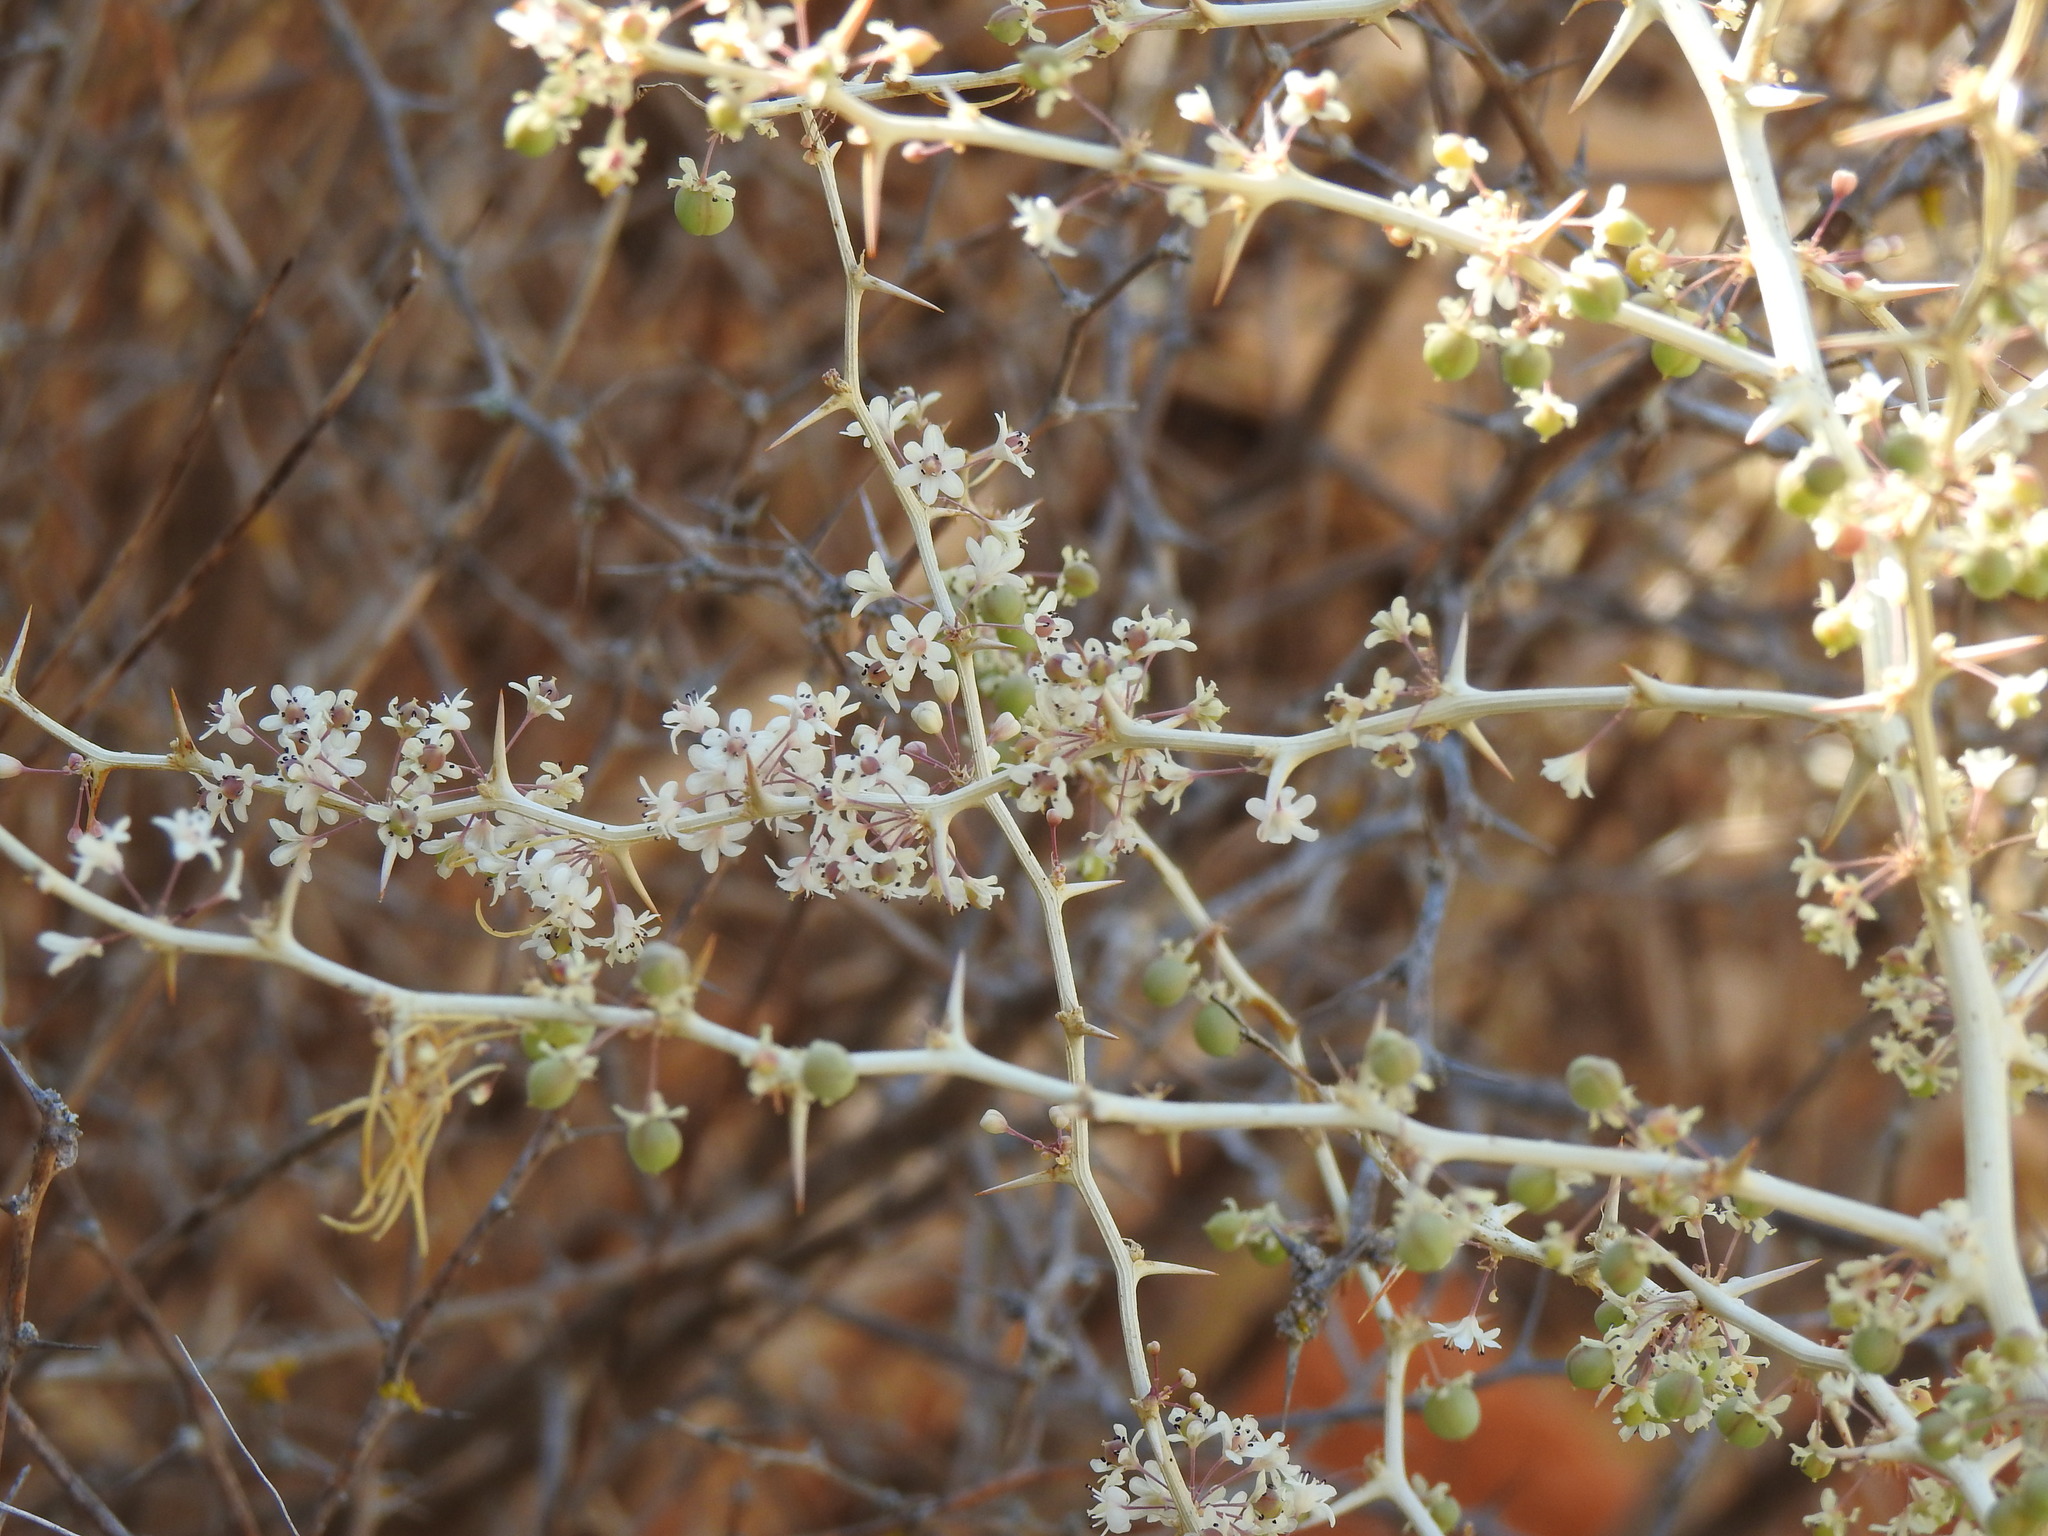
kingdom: Plantae
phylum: Tracheophyta
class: Liliopsida
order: Asparagales
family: Asparagaceae
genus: Asparagus
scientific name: Asparagus albus
